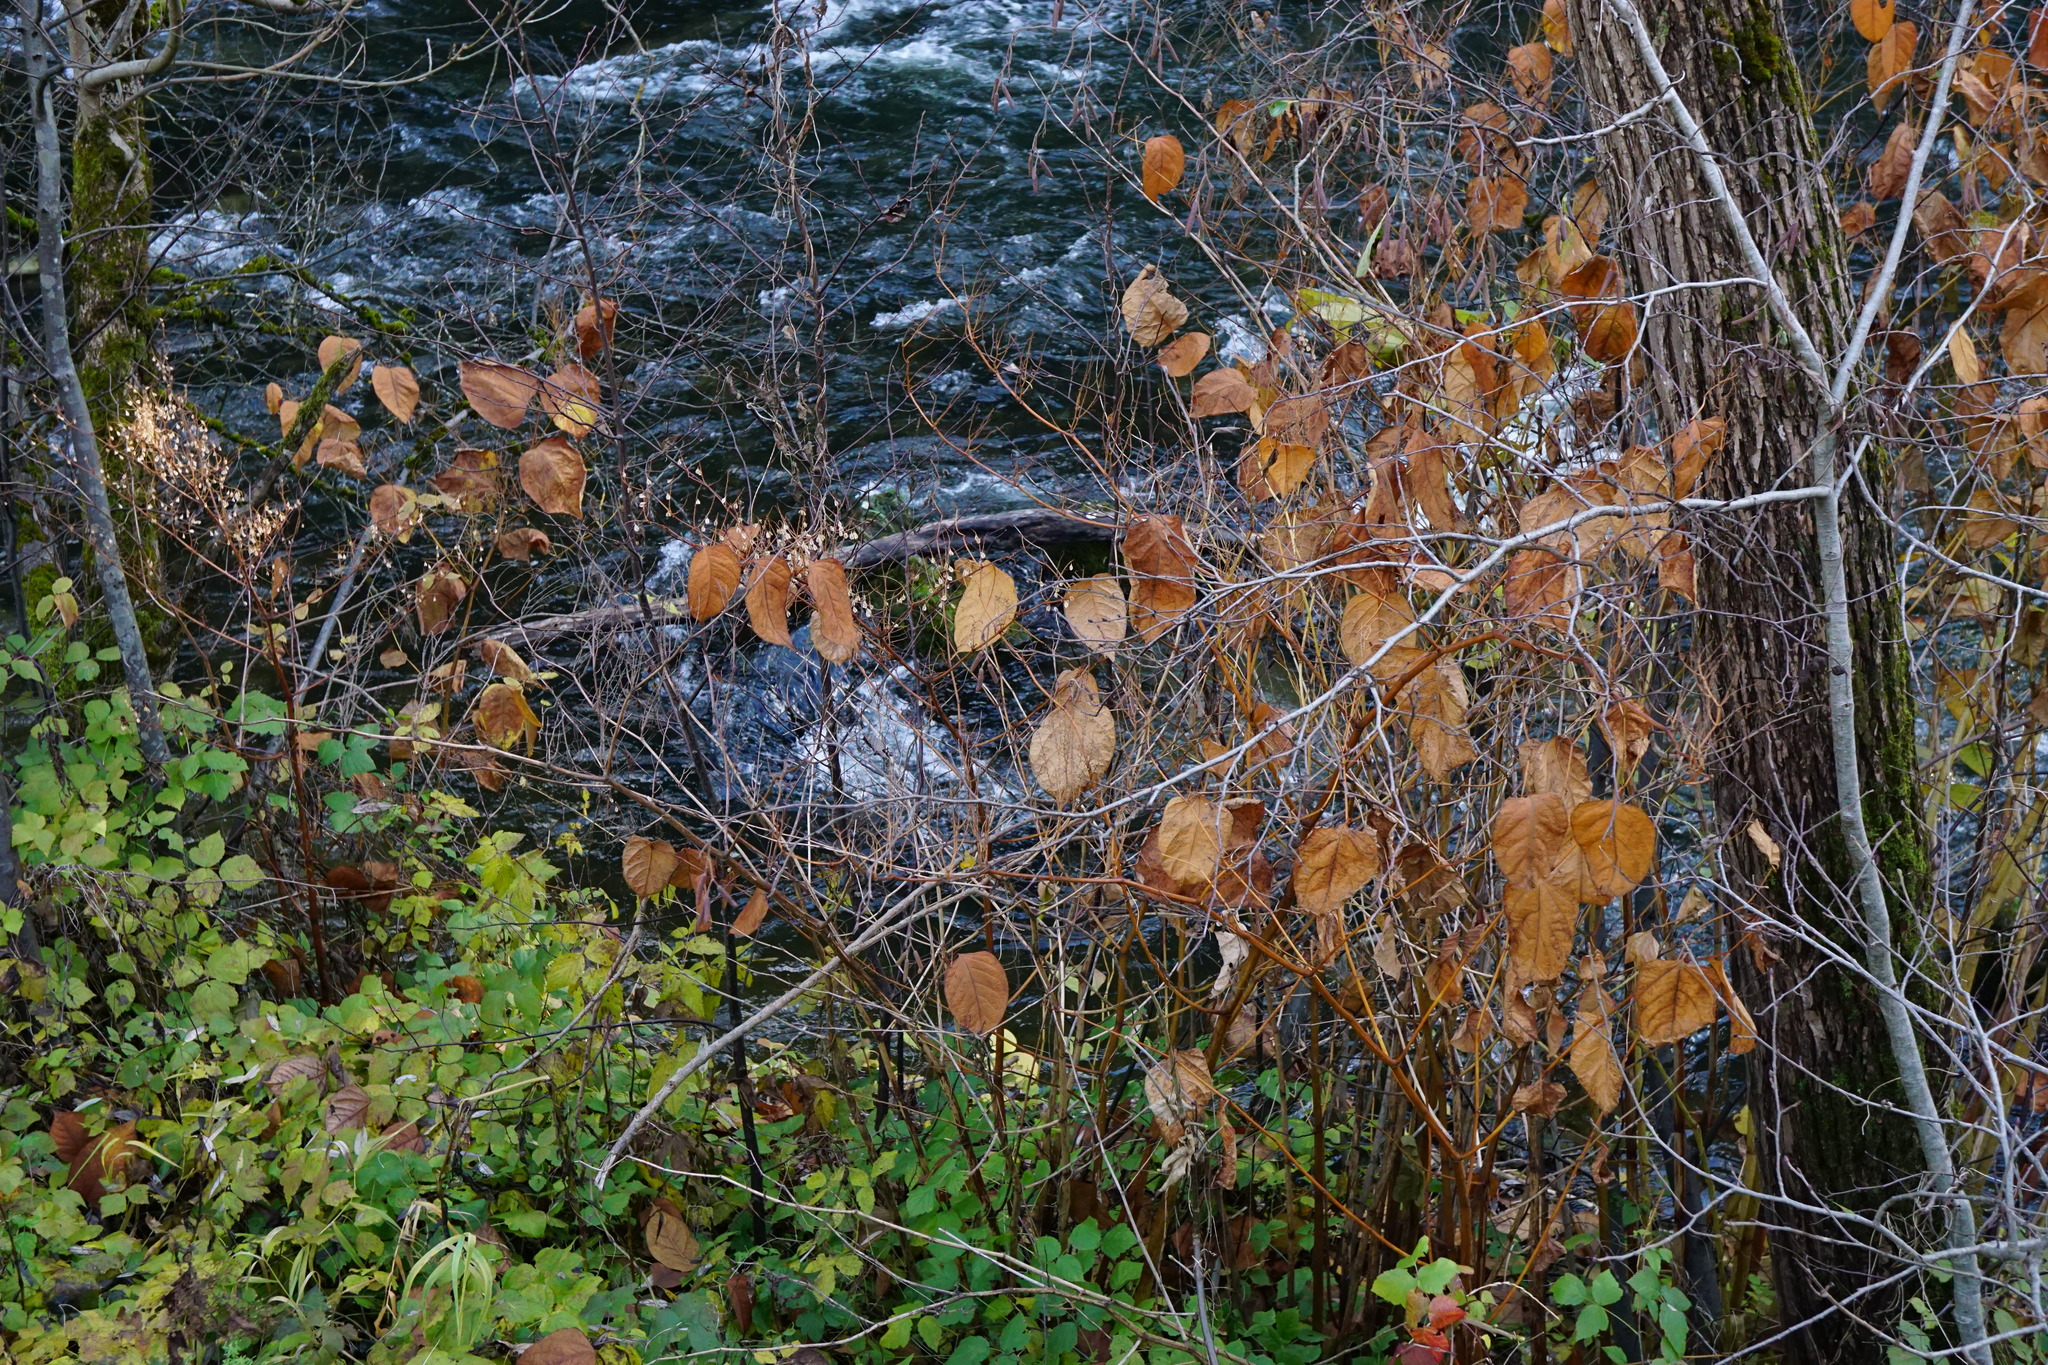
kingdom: Plantae
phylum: Tracheophyta
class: Magnoliopsida
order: Caryophyllales
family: Polygonaceae
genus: Reynoutria
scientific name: Reynoutria bohemica
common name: Bohemian knotweed
